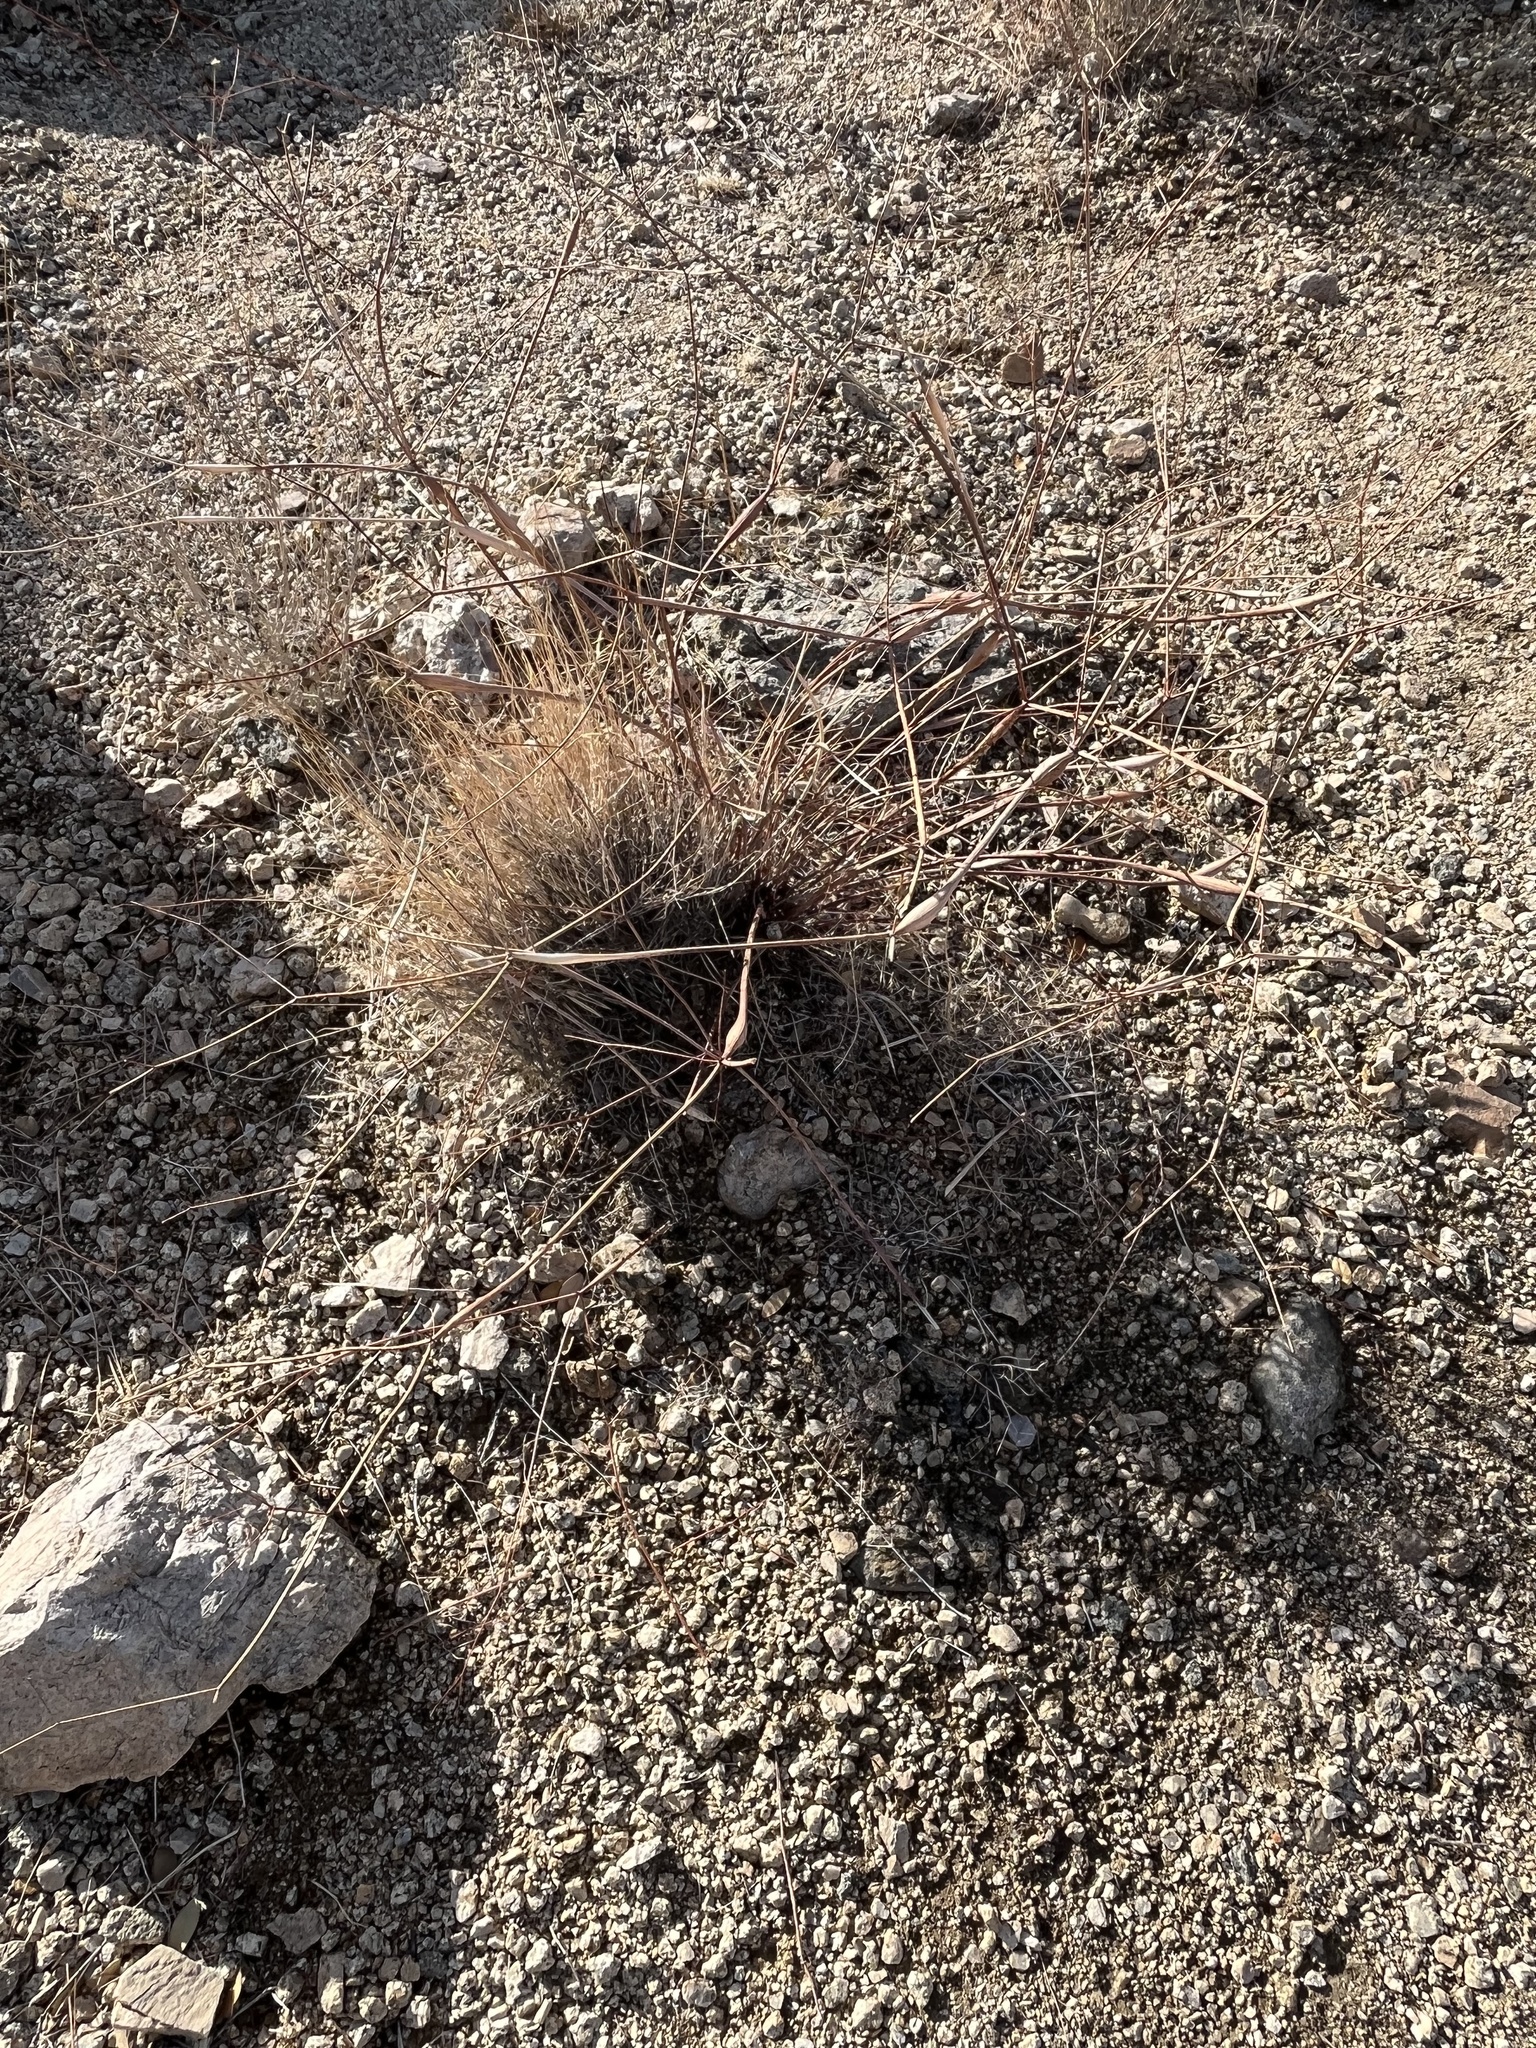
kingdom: Plantae
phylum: Tracheophyta
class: Magnoliopsida
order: Caryophyllales
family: Polygonaceae
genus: Eriogonum
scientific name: Eriogonum inflatum
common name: Desert trumpet
